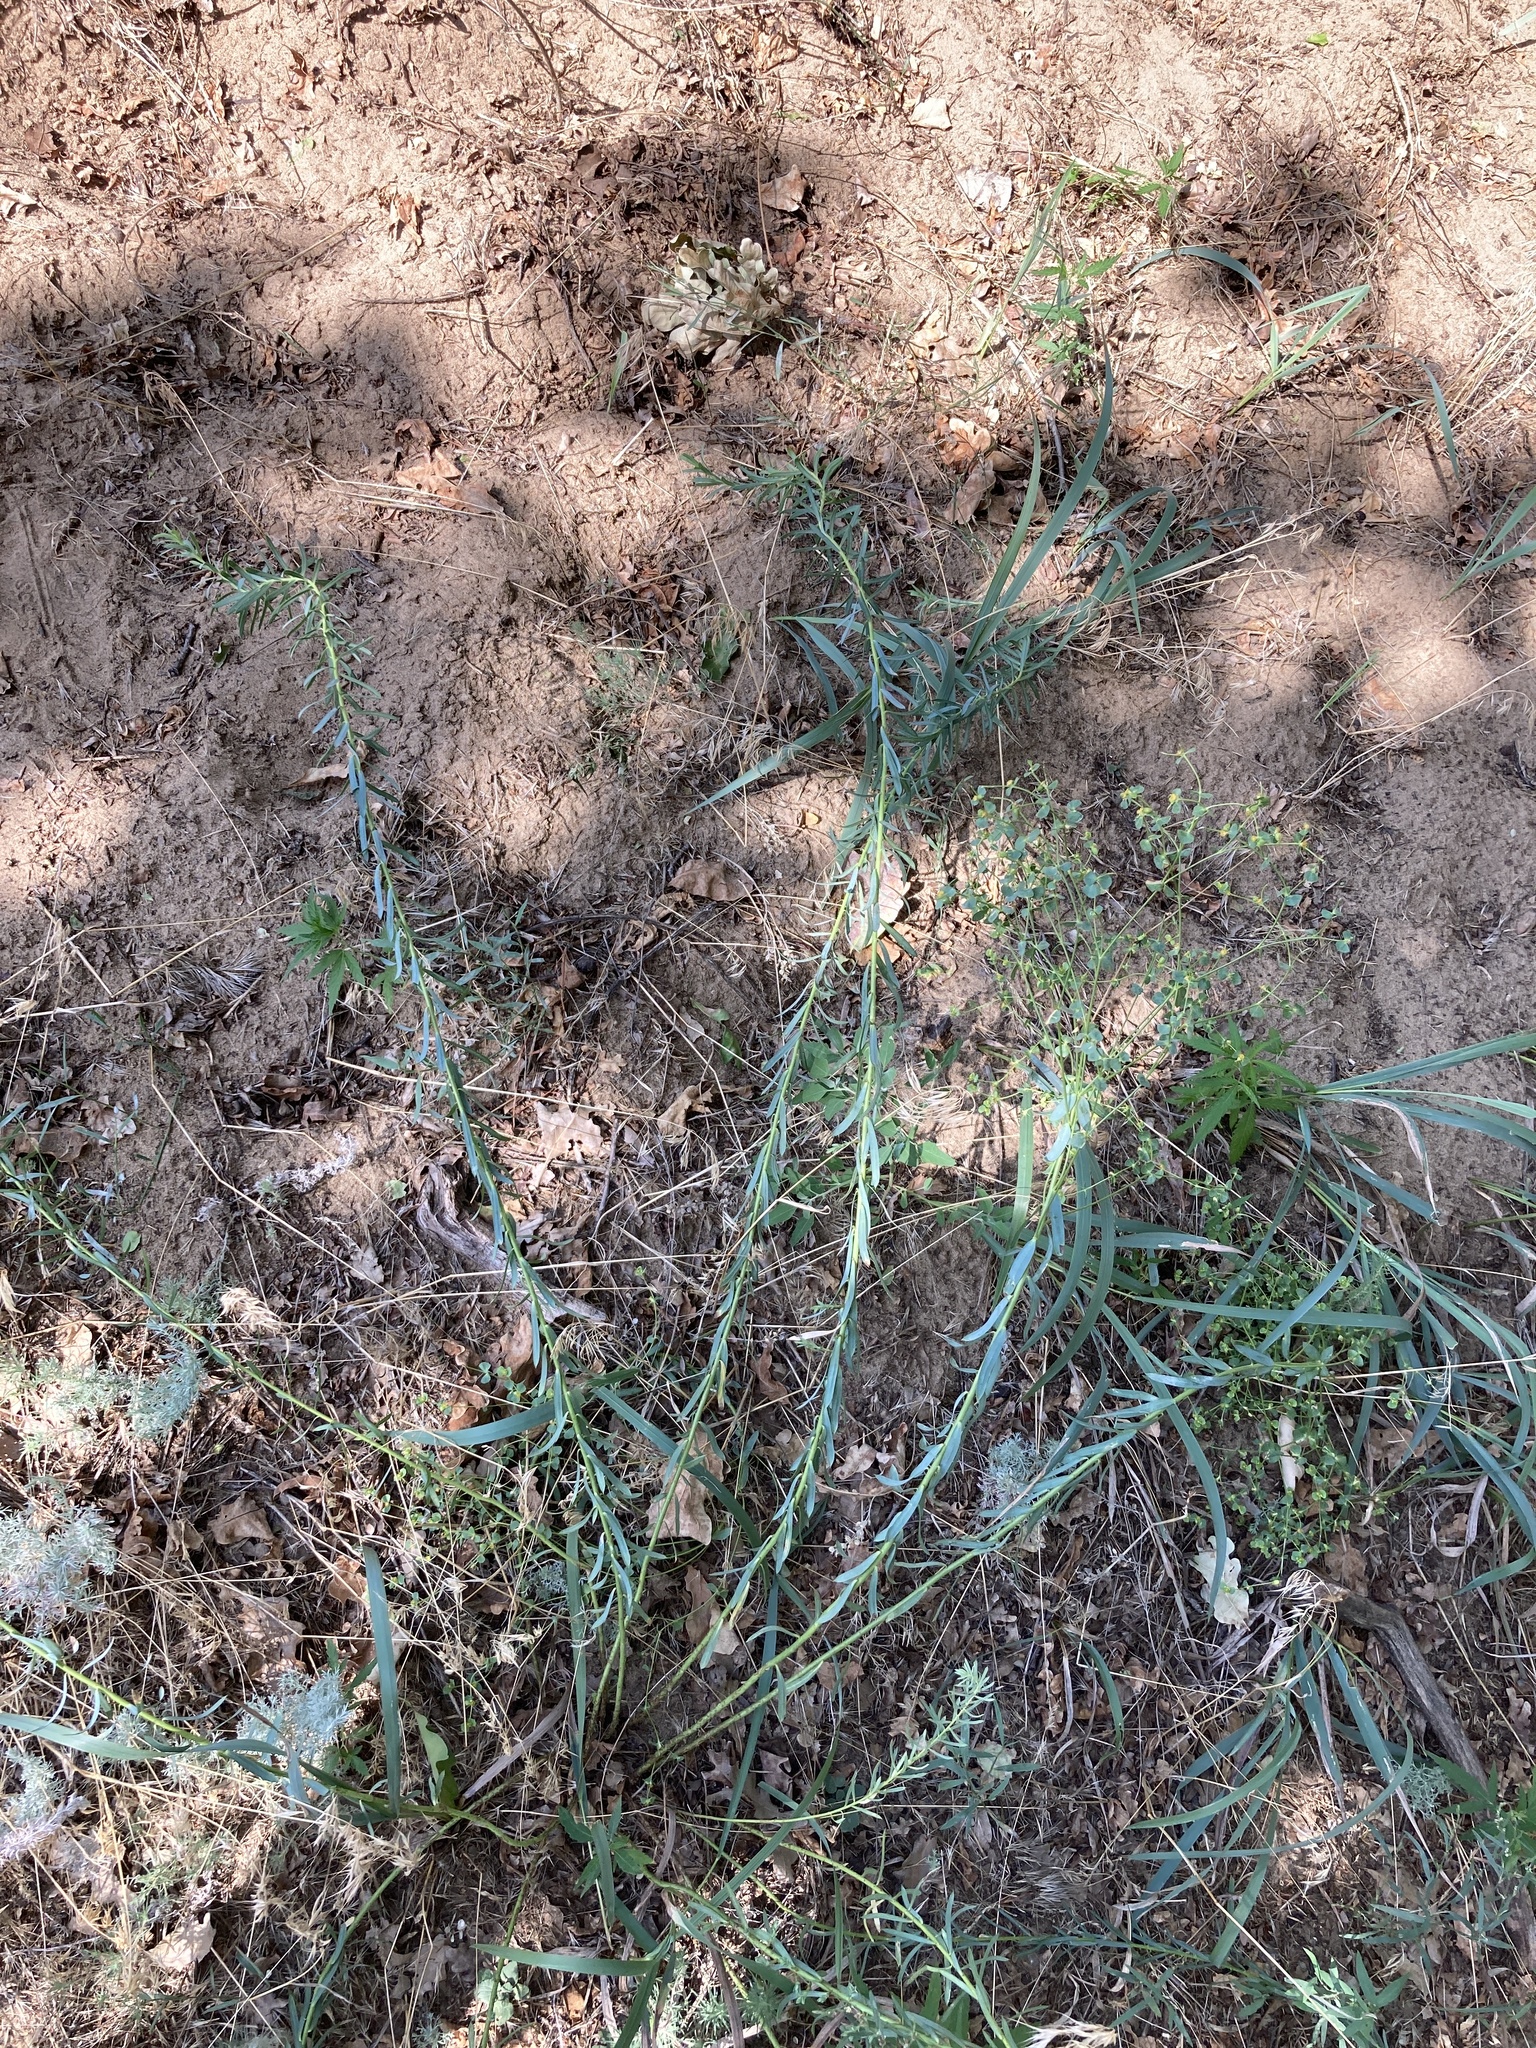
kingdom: Plantae
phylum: Tracheophyta
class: Magnoliopsida
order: Malpighiales
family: Euphorbiaceae
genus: Euphorbia
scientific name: Euphorbia seguieriana
